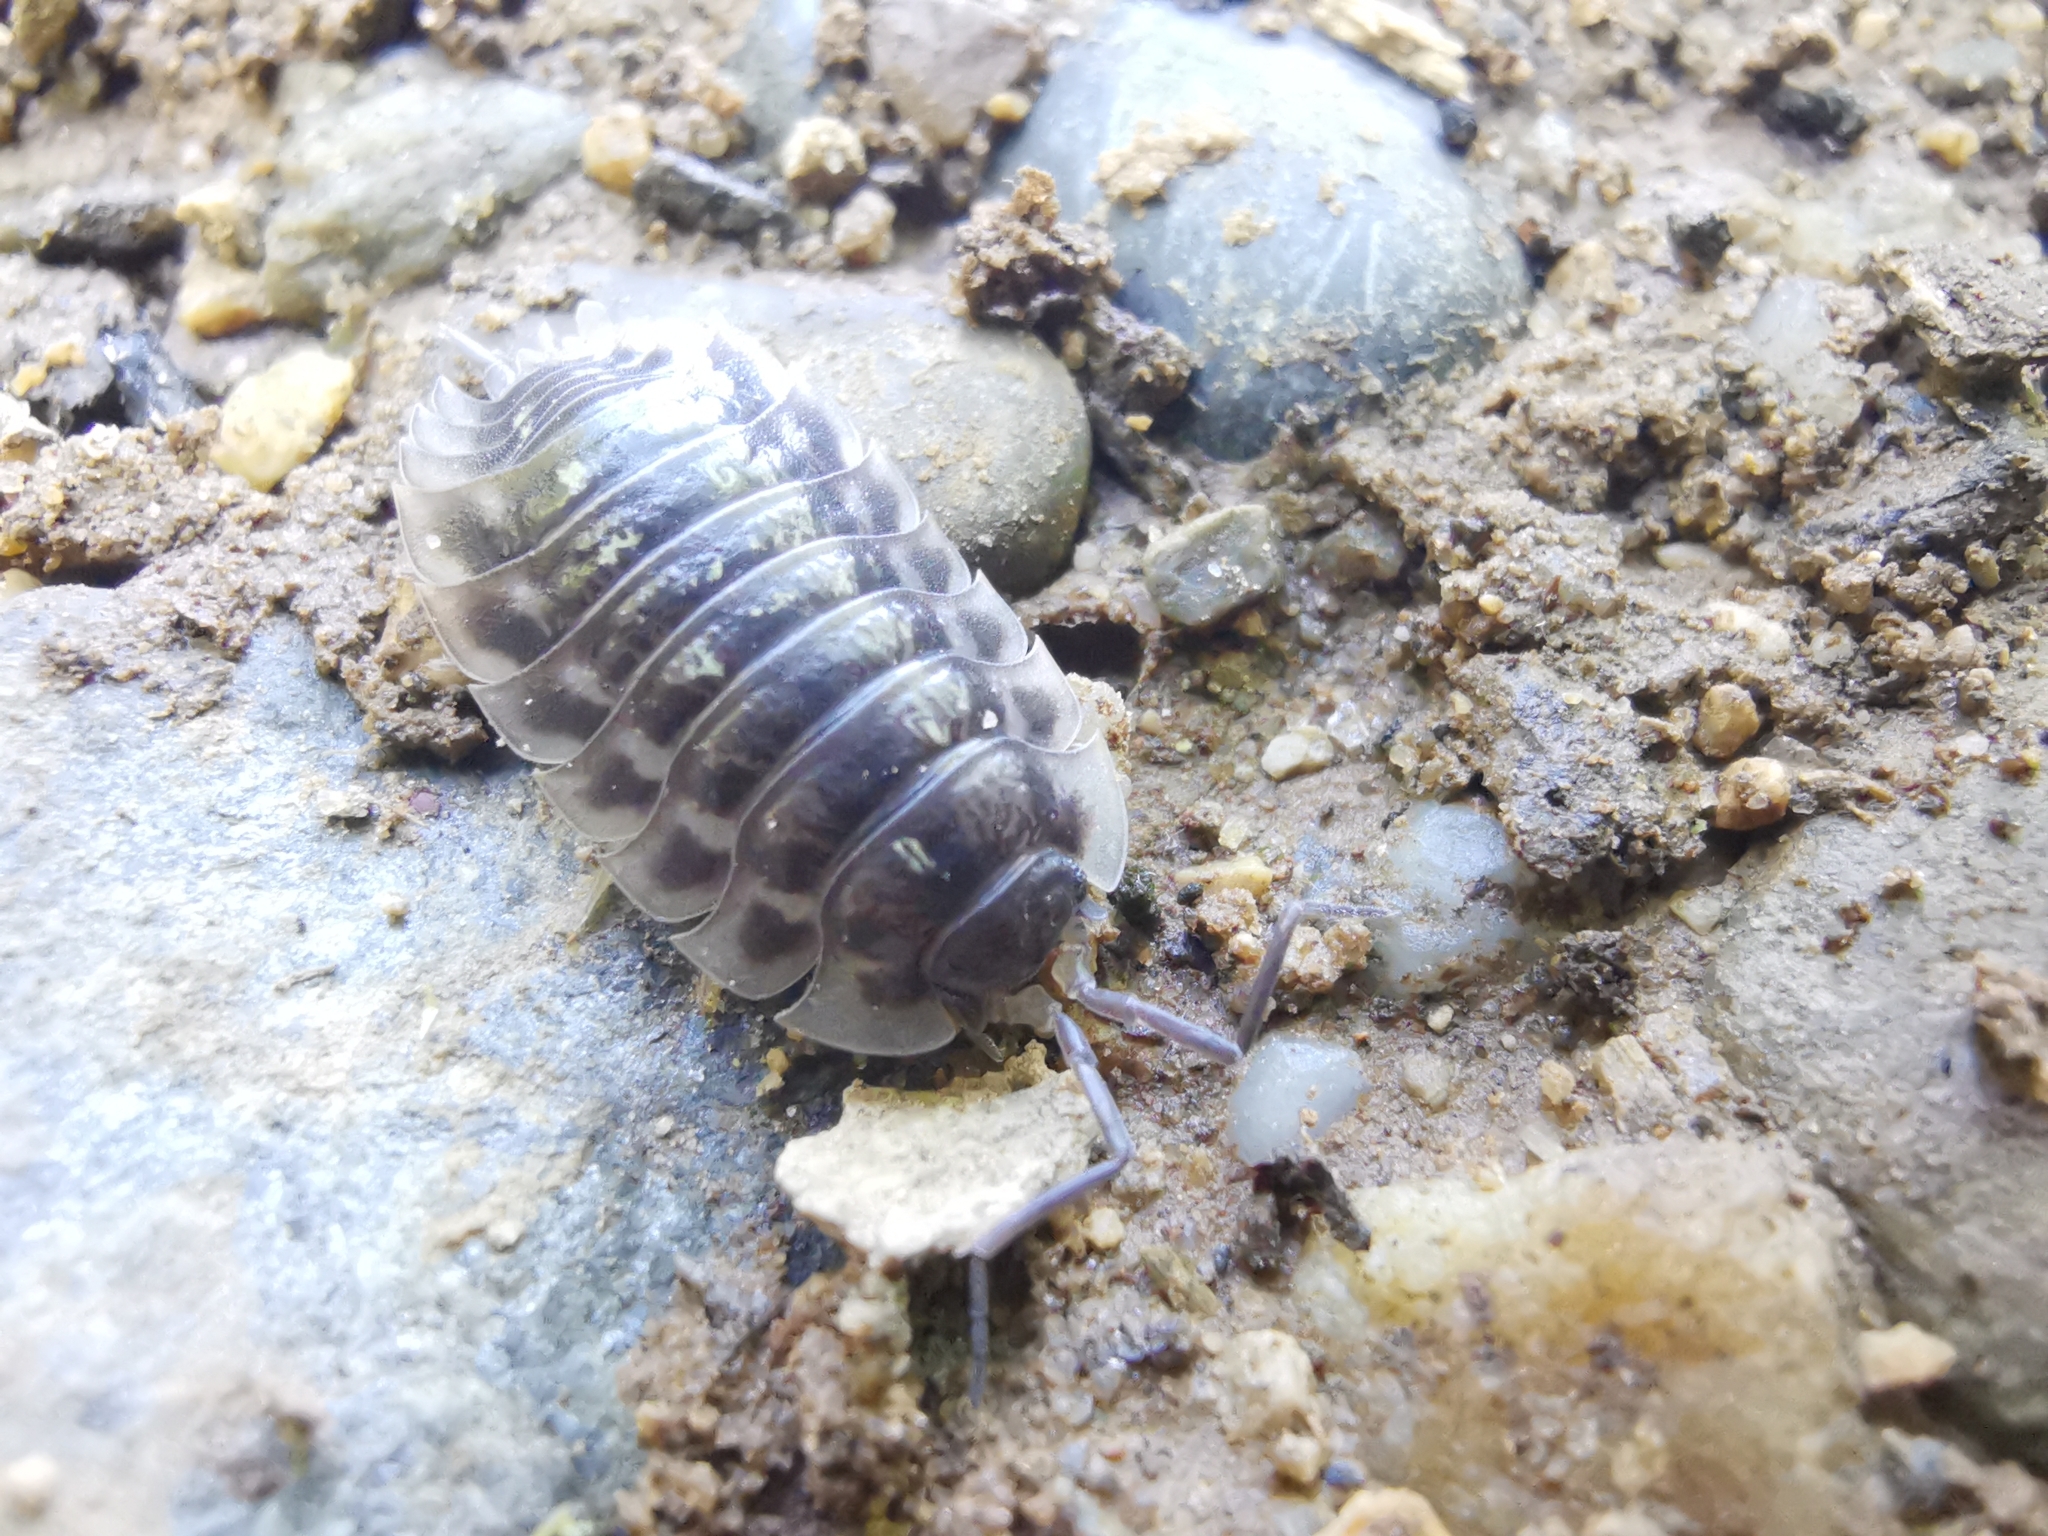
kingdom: Animalia
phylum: Arthropoda
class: Malacostraca
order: Isopoda
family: Oniscidae
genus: Oniscus
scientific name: Oniscus asellus
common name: Common shiny woodlouse
